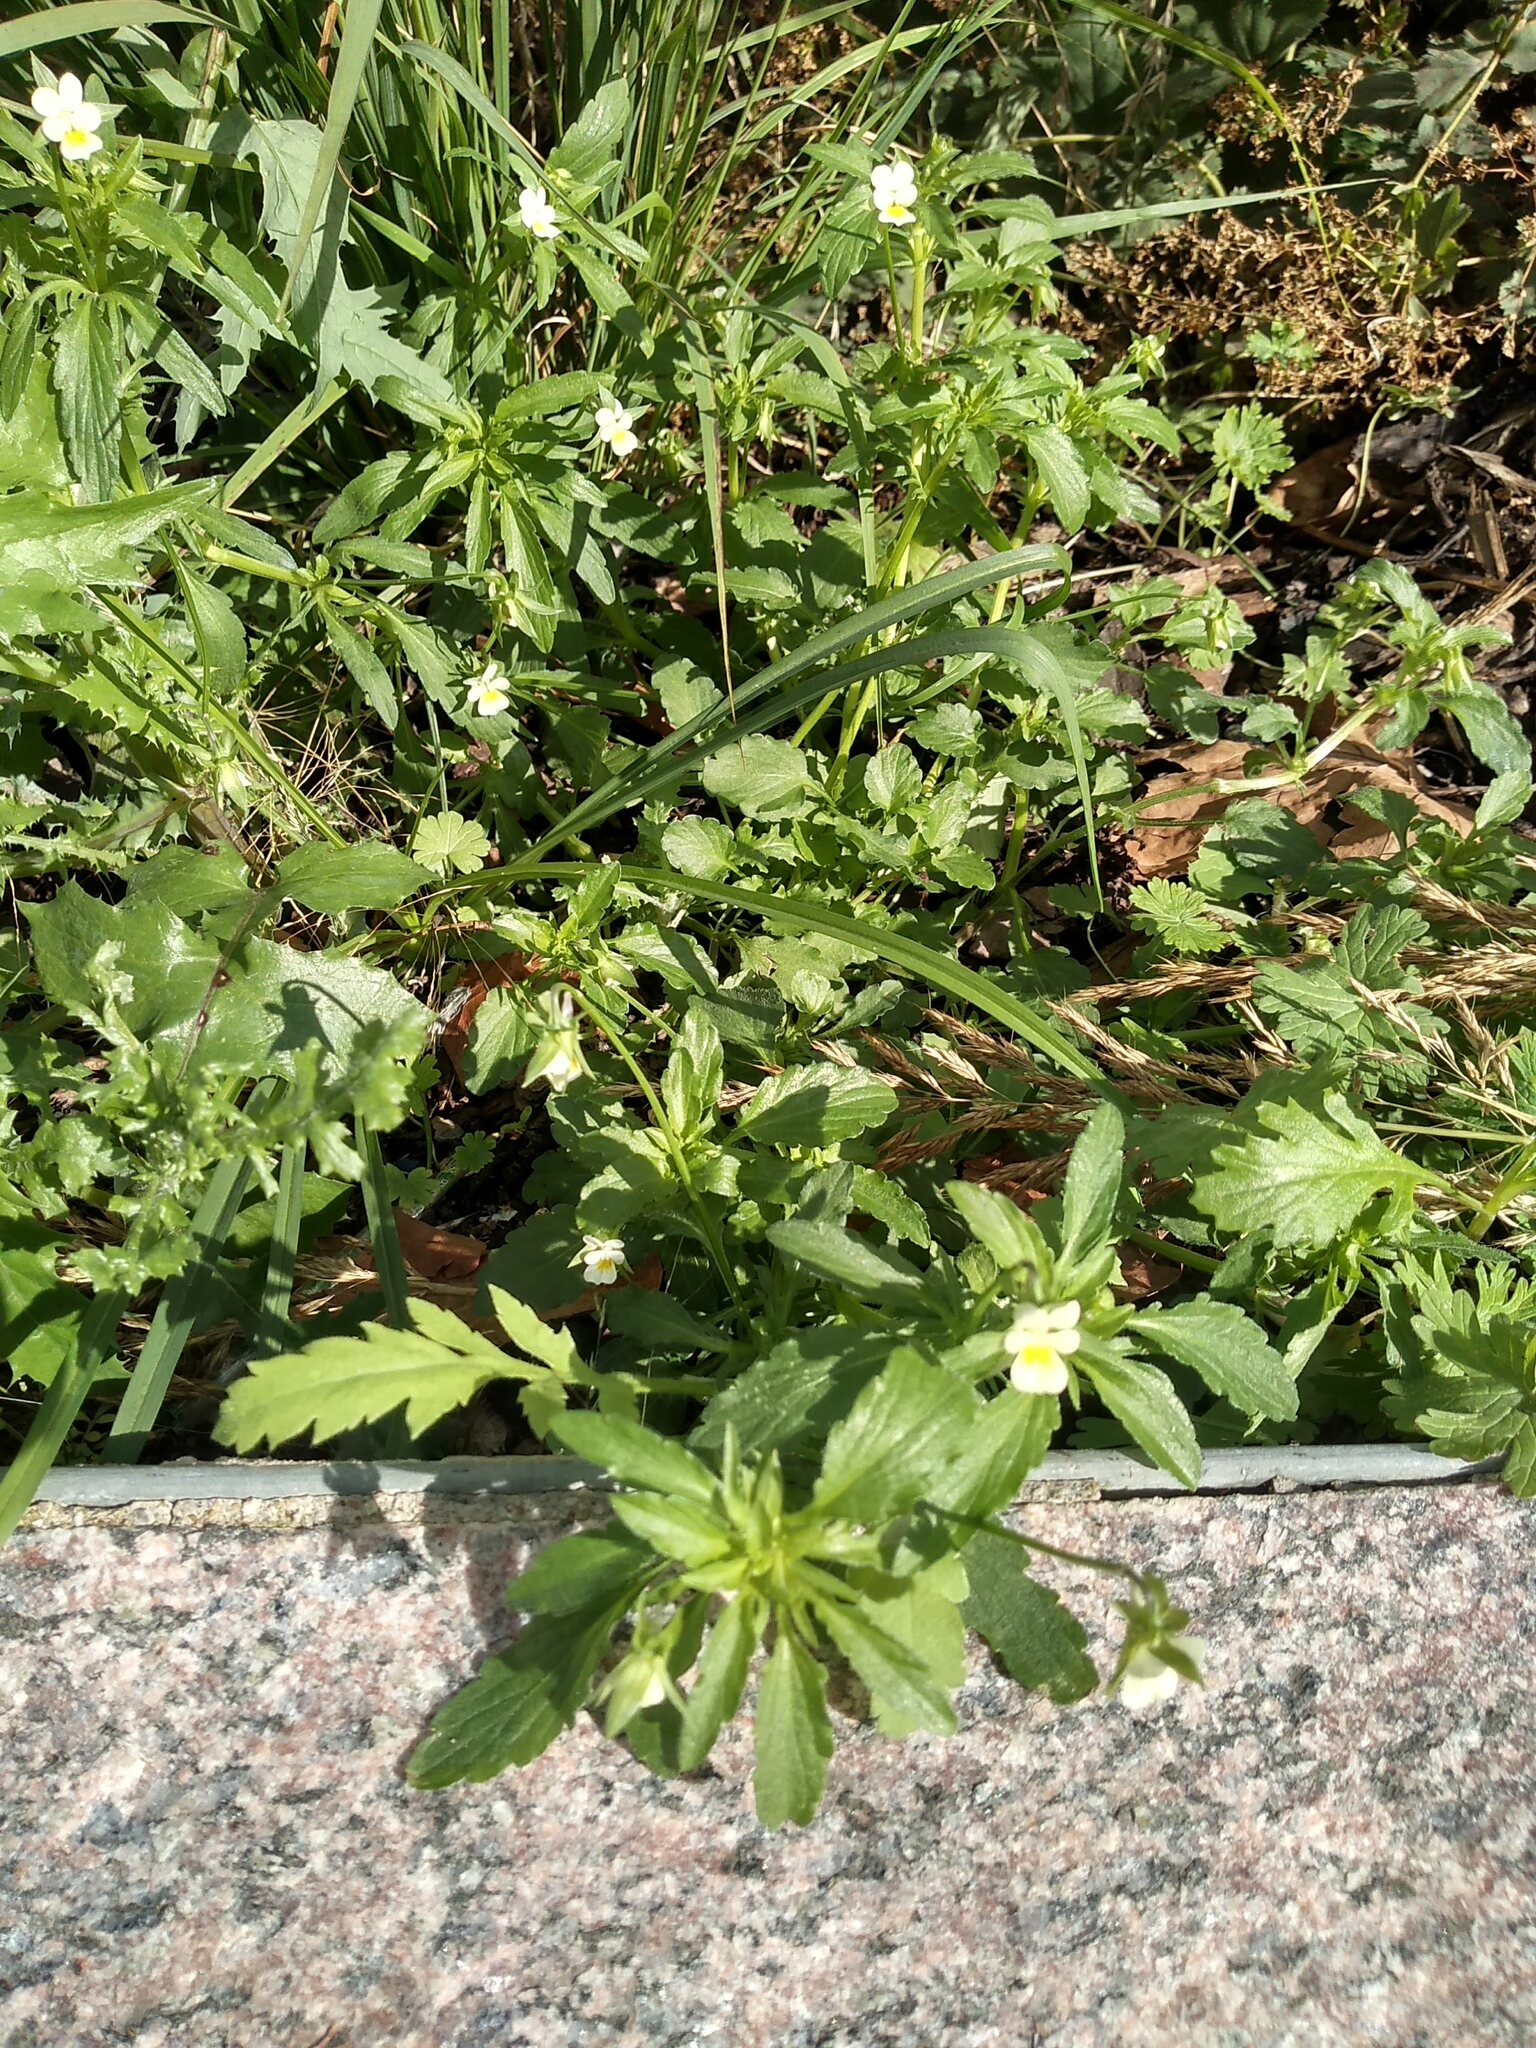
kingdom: Plantae
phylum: Tracheophyta
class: Magnoliopsida
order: Malpighiales
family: Violaceae
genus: Viola
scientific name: Viola arvensis
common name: Field pansy
